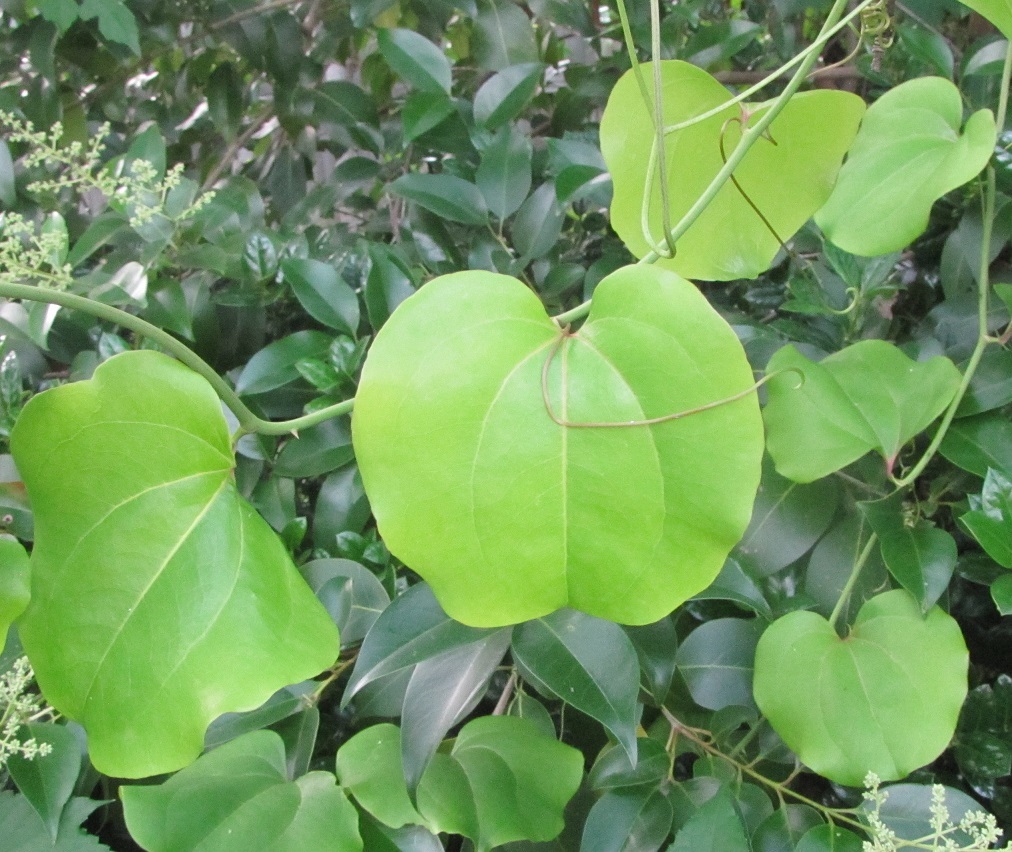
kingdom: Plantae
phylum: Tracheophyta
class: Liliopsida
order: Liliales
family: Smilacaceae
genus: Smilax
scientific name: Smilax rotundifolia
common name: Bullbriar
